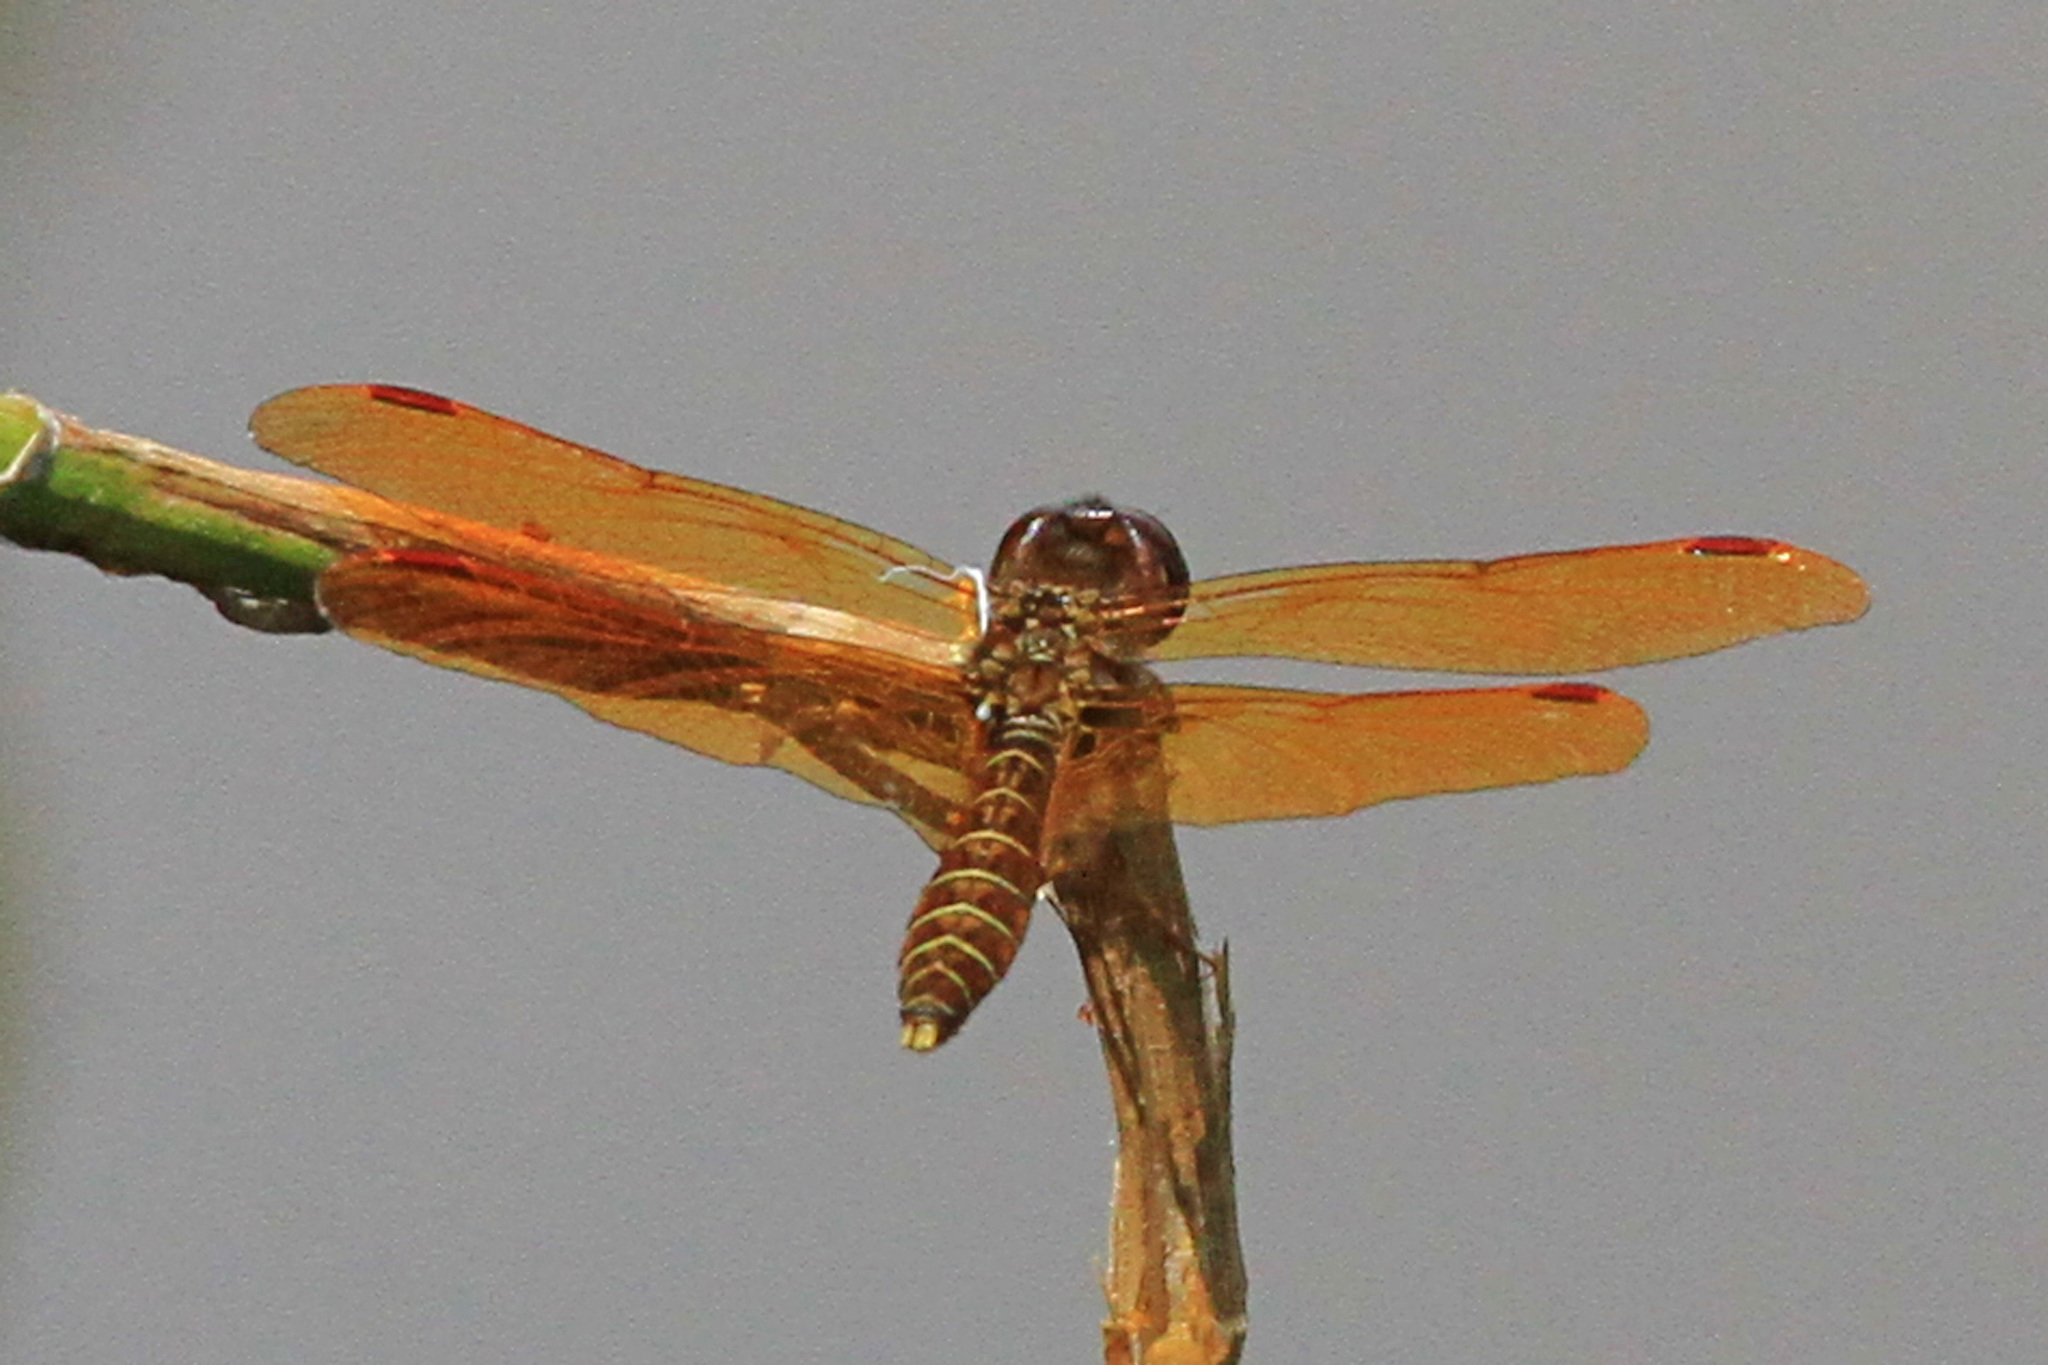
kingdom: Animalia
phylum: Arthropoda
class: Insecta
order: Odonata
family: Libellulidae
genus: Perithemis
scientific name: Perithemis tenera
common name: Eastern amberwing
